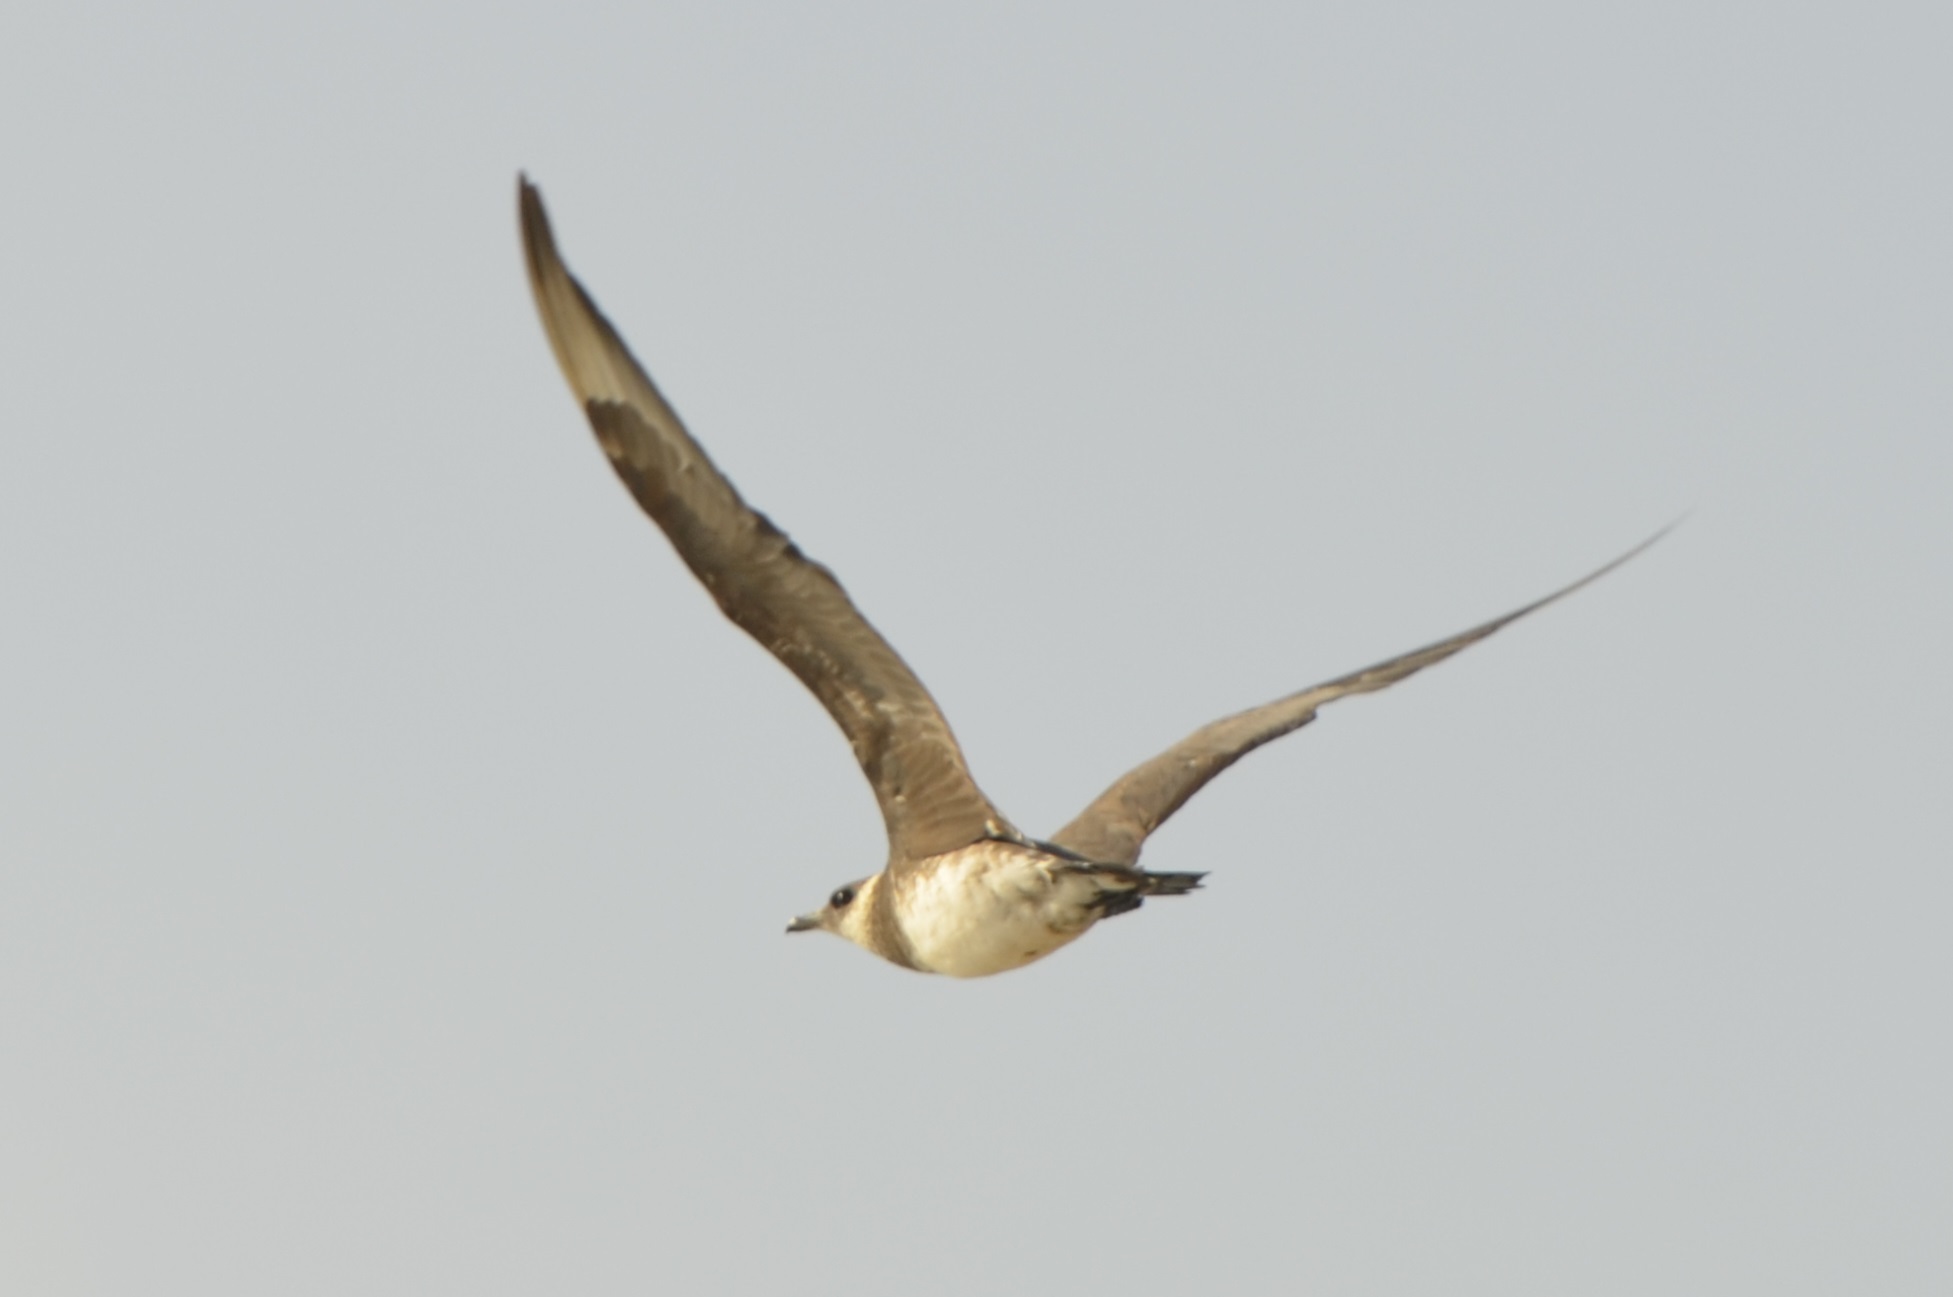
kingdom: Animalia
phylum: Chordata
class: Aves
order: Charadriiformes
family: Stercorariidae
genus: Stercorarius
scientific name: Stercorarius parasiticus
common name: Parasitic jaeger
